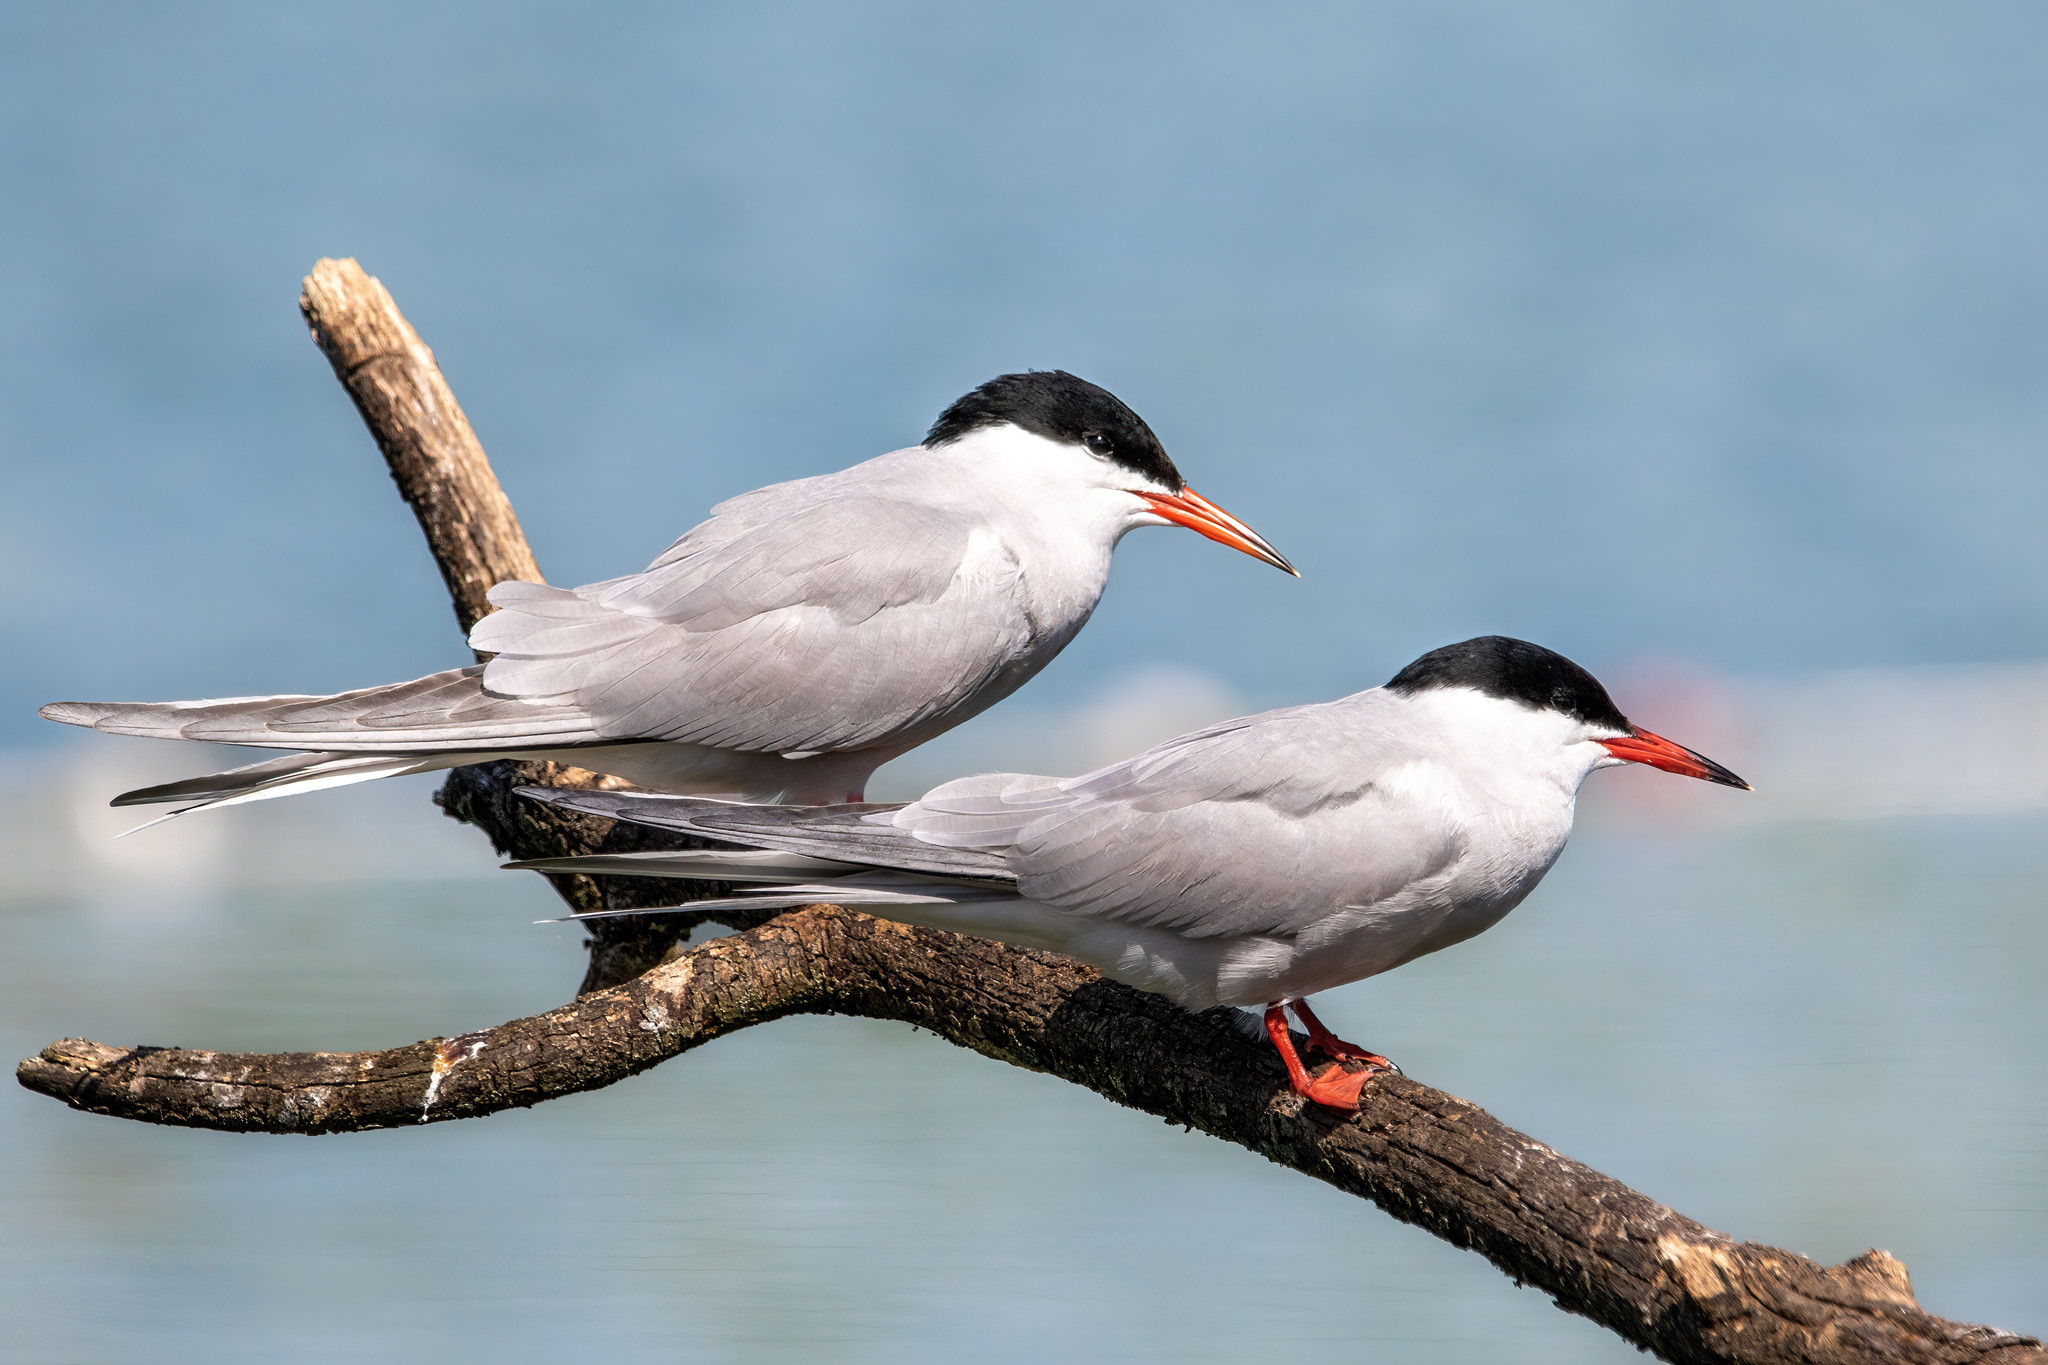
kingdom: Animalia
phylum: Chordata
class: Aves
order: Charadriiformes
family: Laridae
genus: Sterna
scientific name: Sterna hirundo
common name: Common tern
